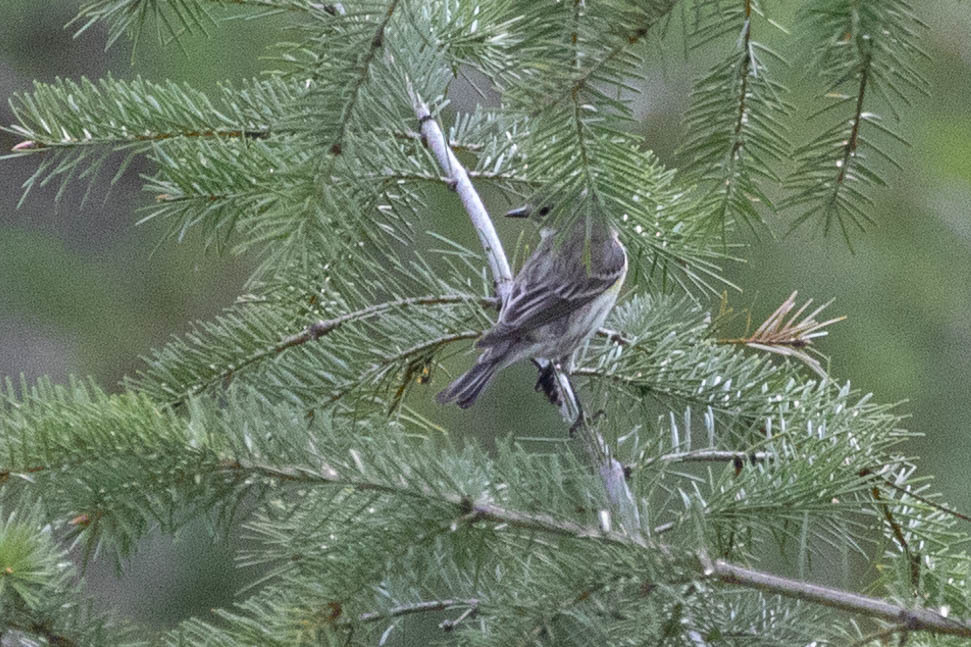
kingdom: Animalia
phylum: Chordata
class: Aves
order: Passeriformes
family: Parulidae
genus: Setophaga
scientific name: Setophaga coronata
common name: Myrtle warbler
